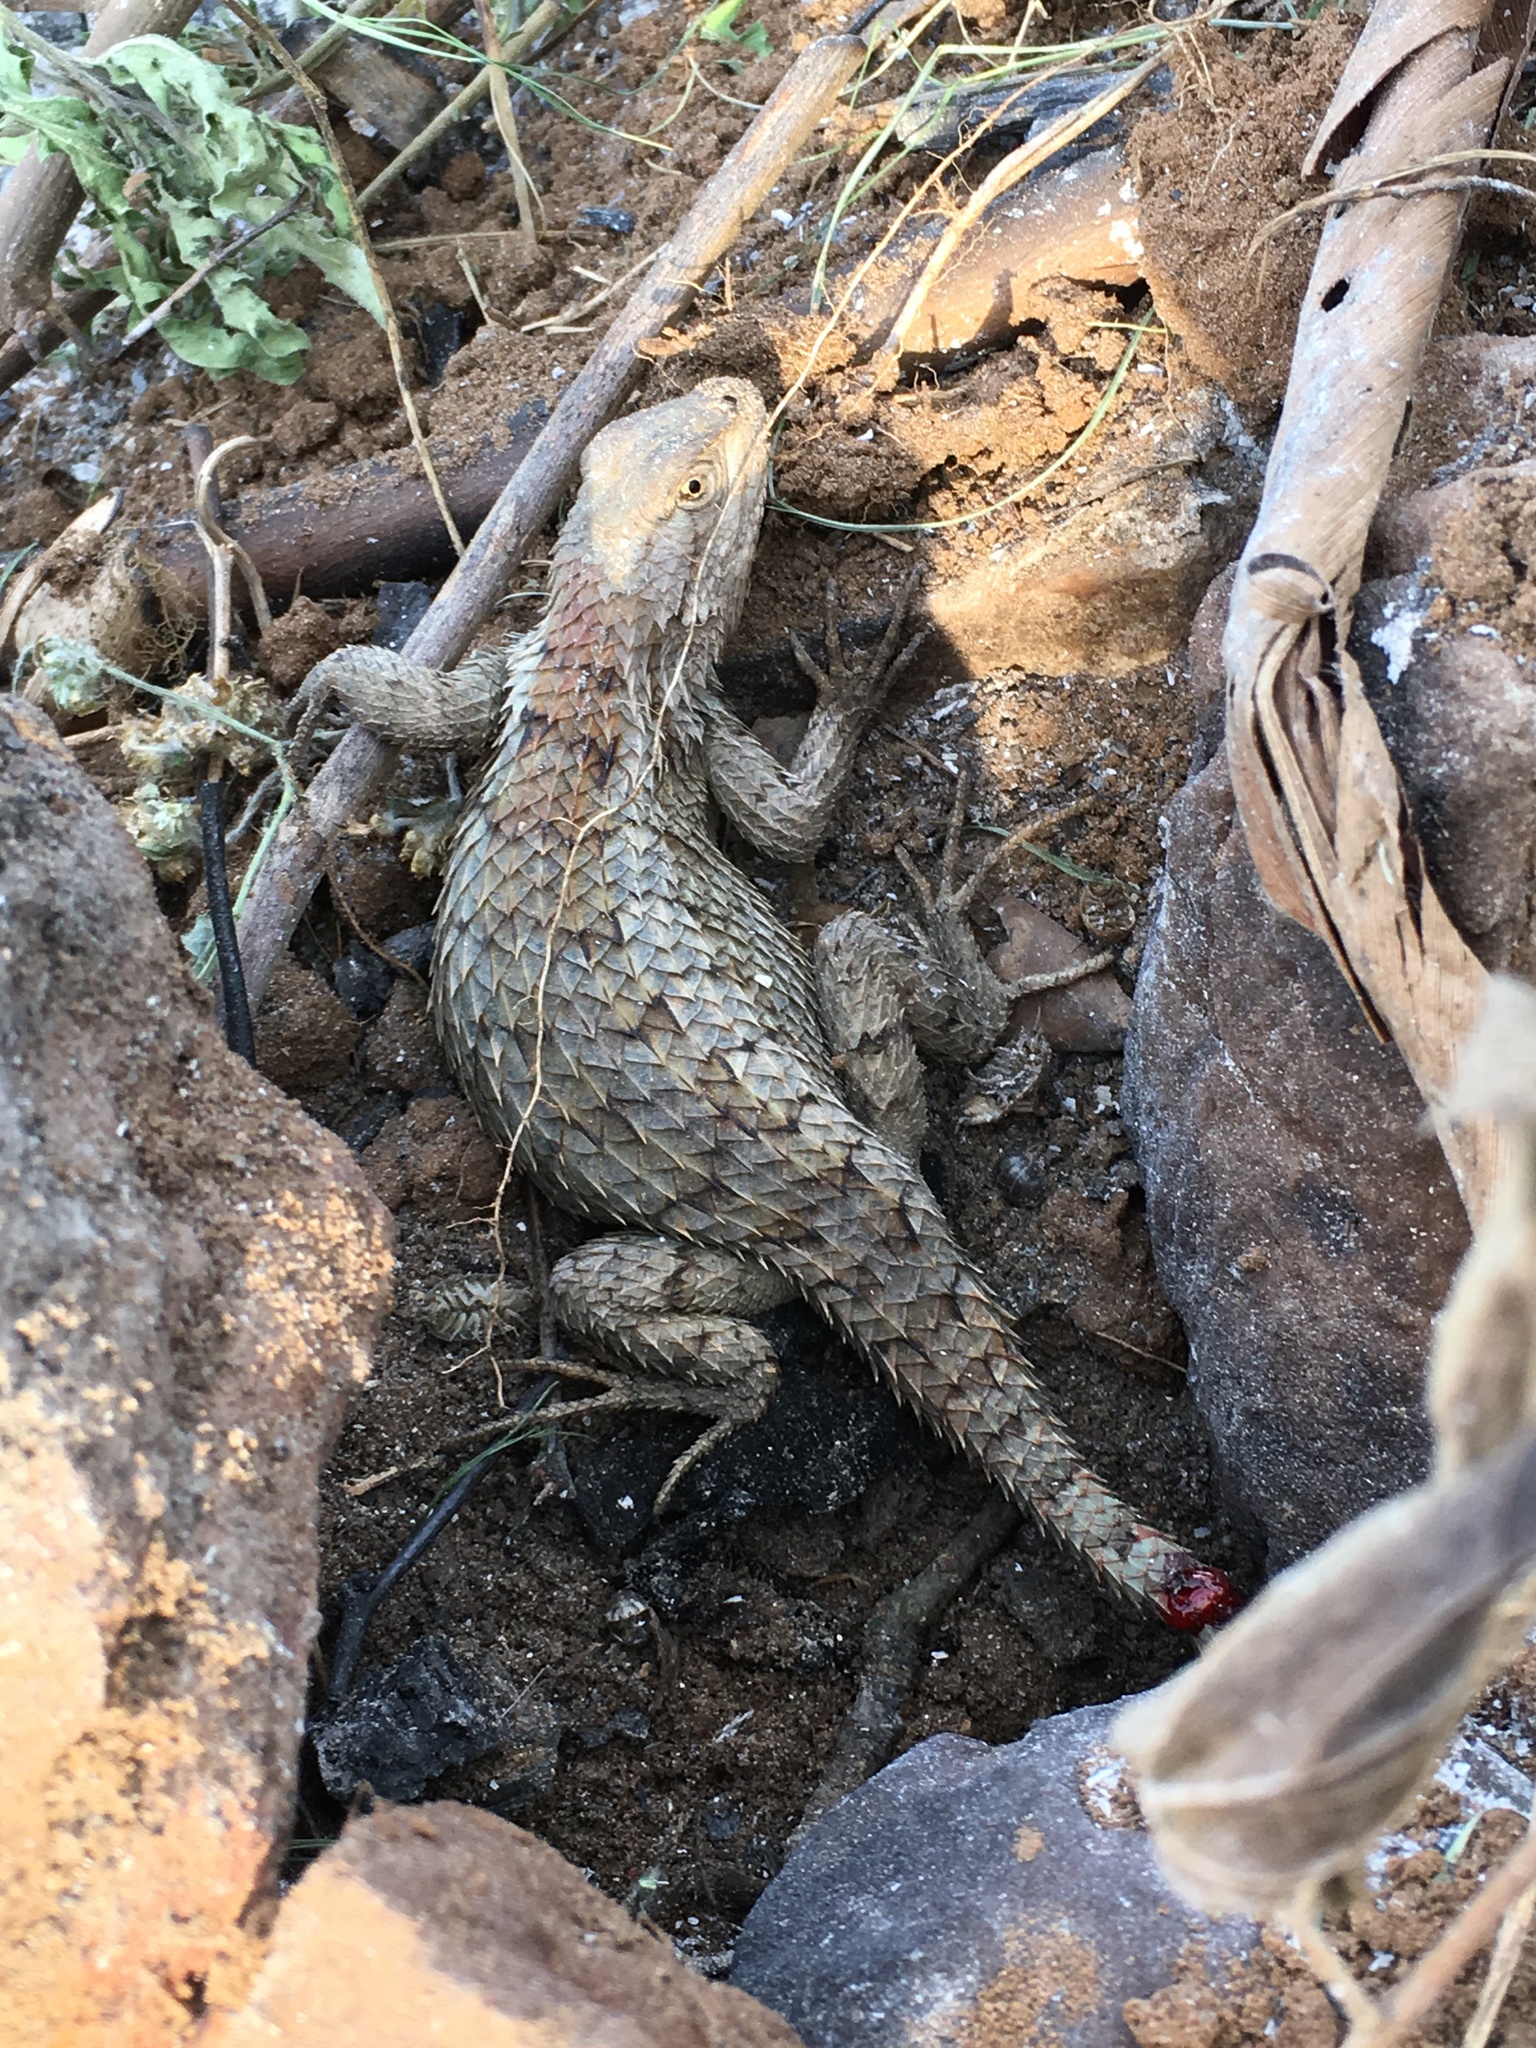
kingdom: Animalia
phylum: Chordata
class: Squamata
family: Phrynosomatidae
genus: Sceloporus
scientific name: Sceloporus olivaceus
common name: Texas spiny lizard
